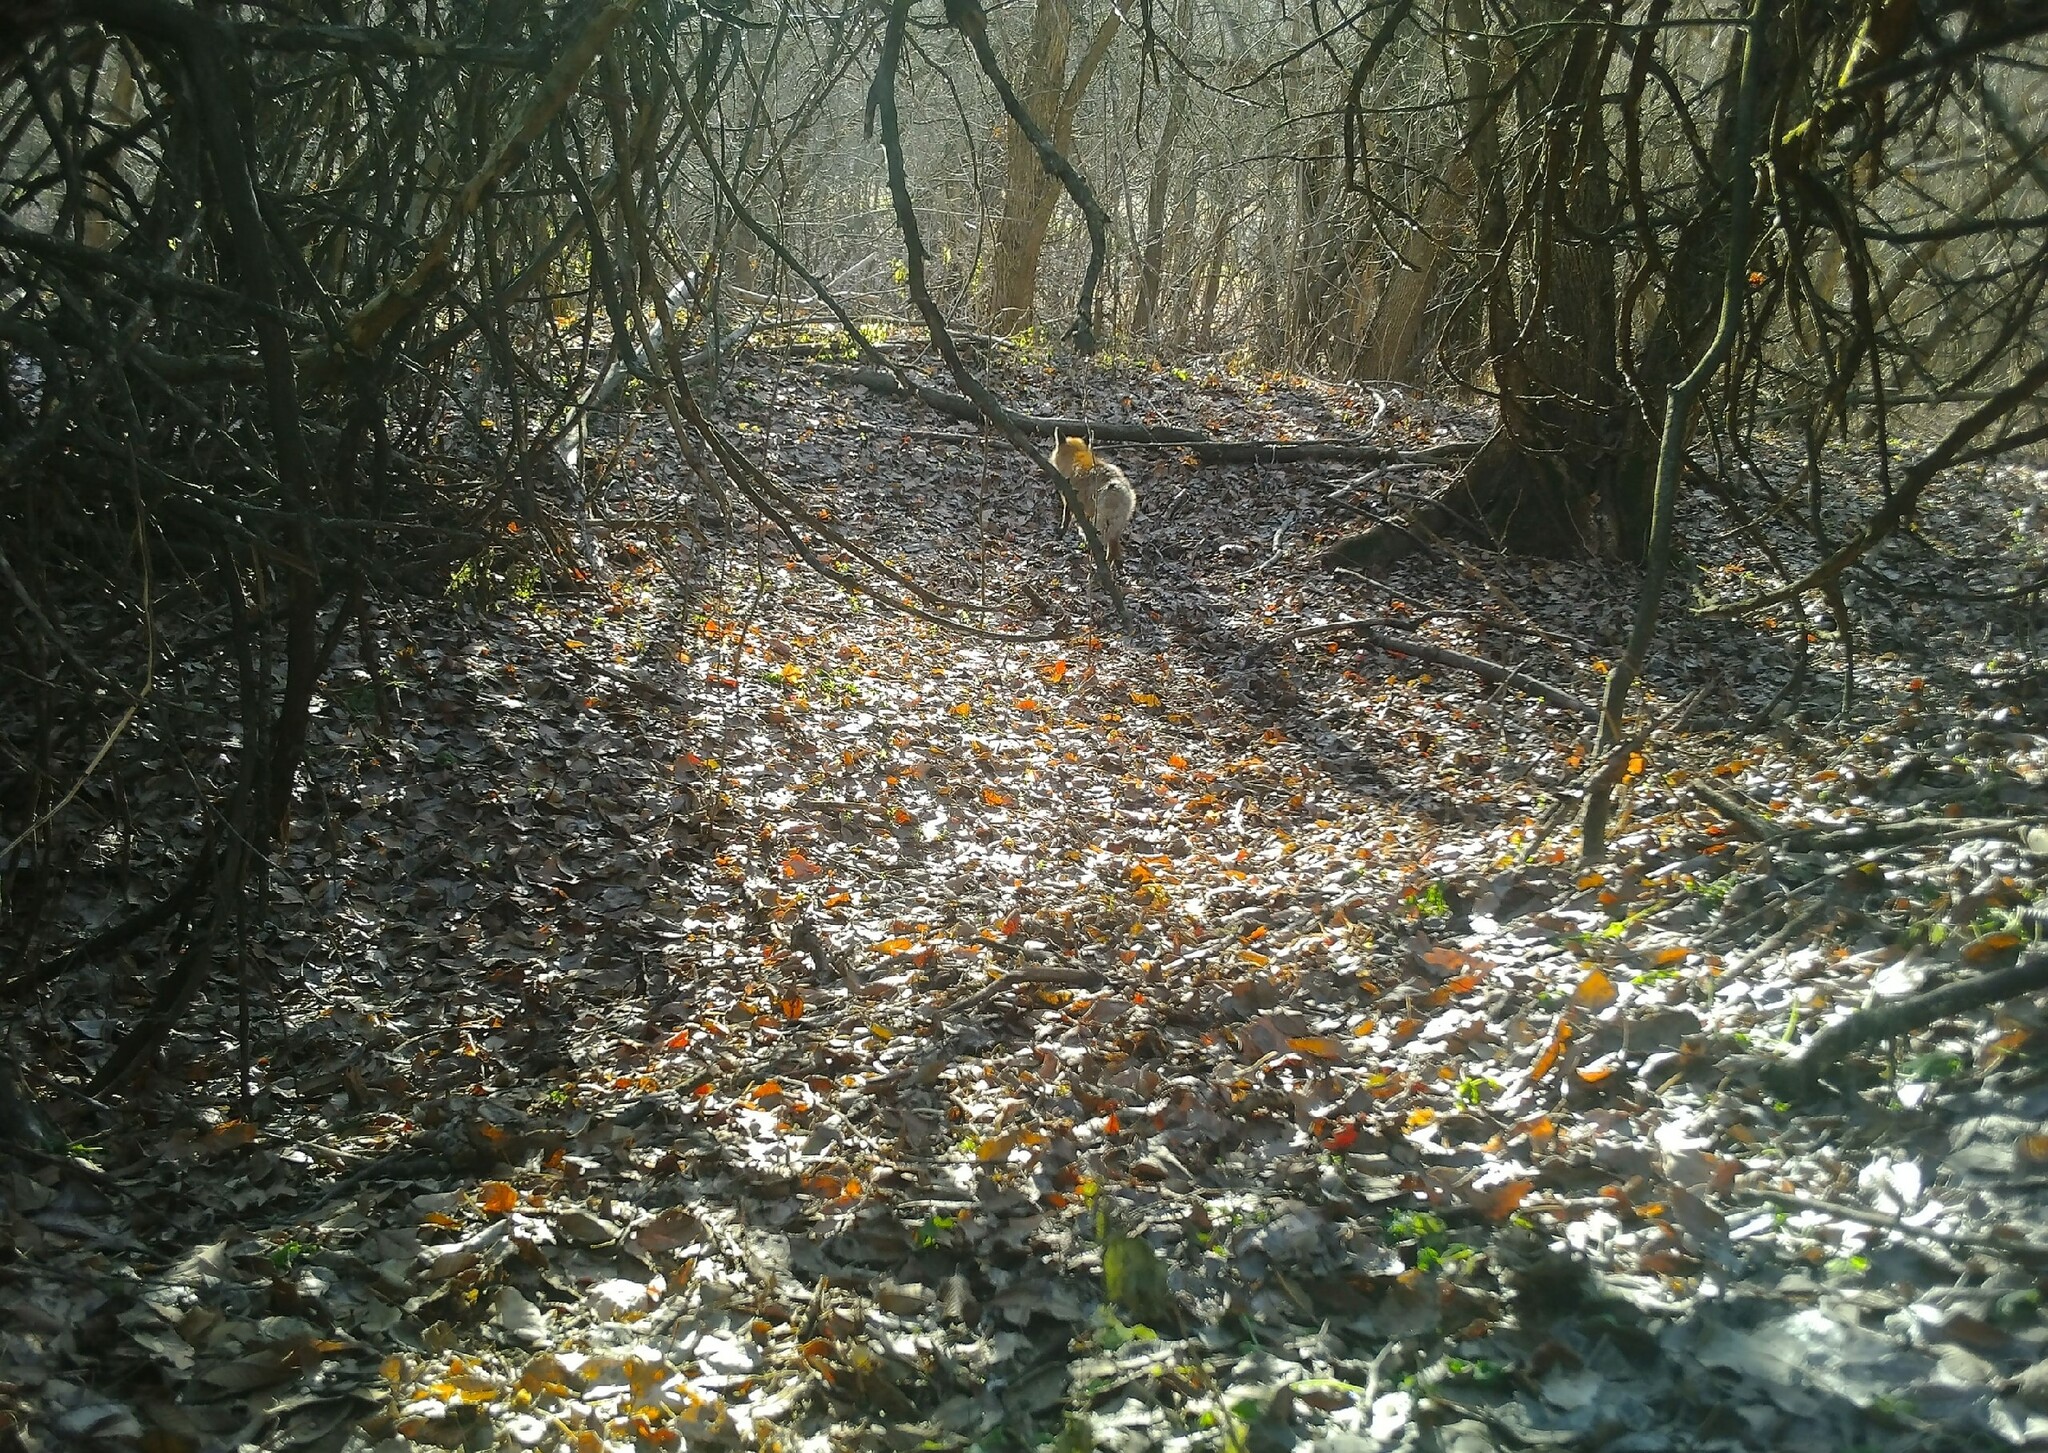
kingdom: Animalia
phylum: Chordata
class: Mammalia
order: Carnivora
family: Canidae
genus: Vulpes
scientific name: Vulpes vulpes
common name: Red fox
